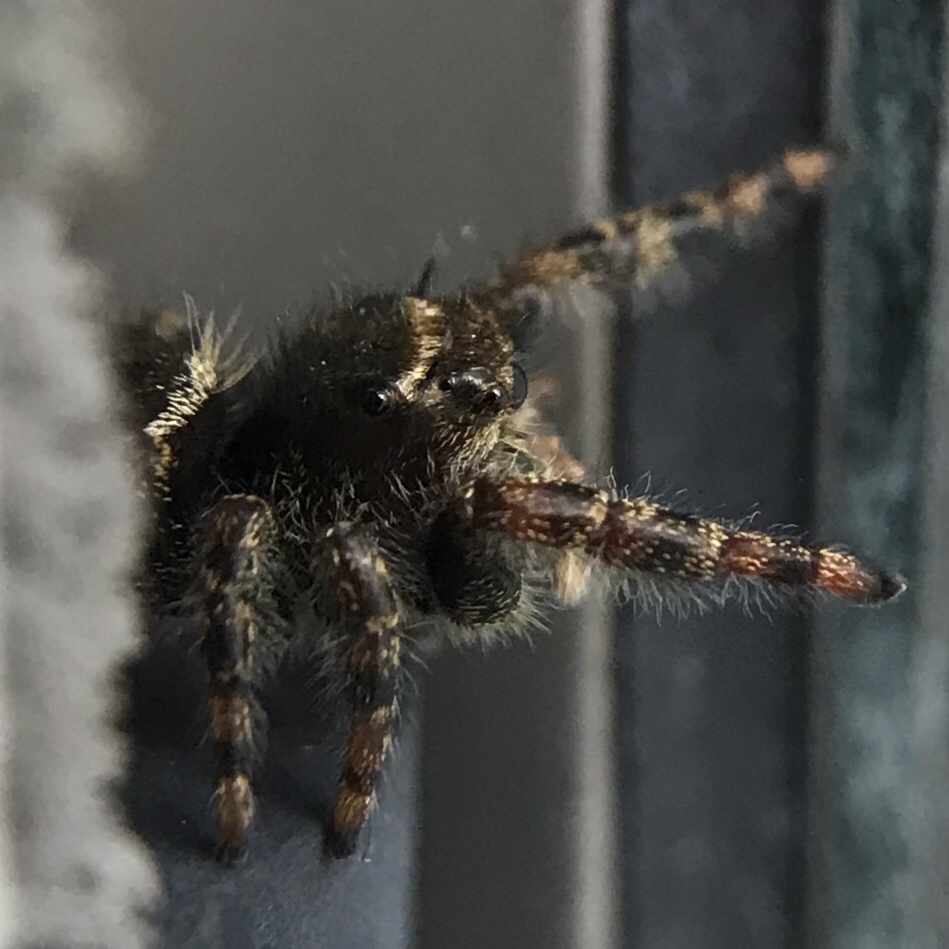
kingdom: Animalia
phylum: Arthropoda
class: Arachnida
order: Araneae
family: Salticidae
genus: Phidippus
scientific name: Phidippus audax
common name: Bold jumper
